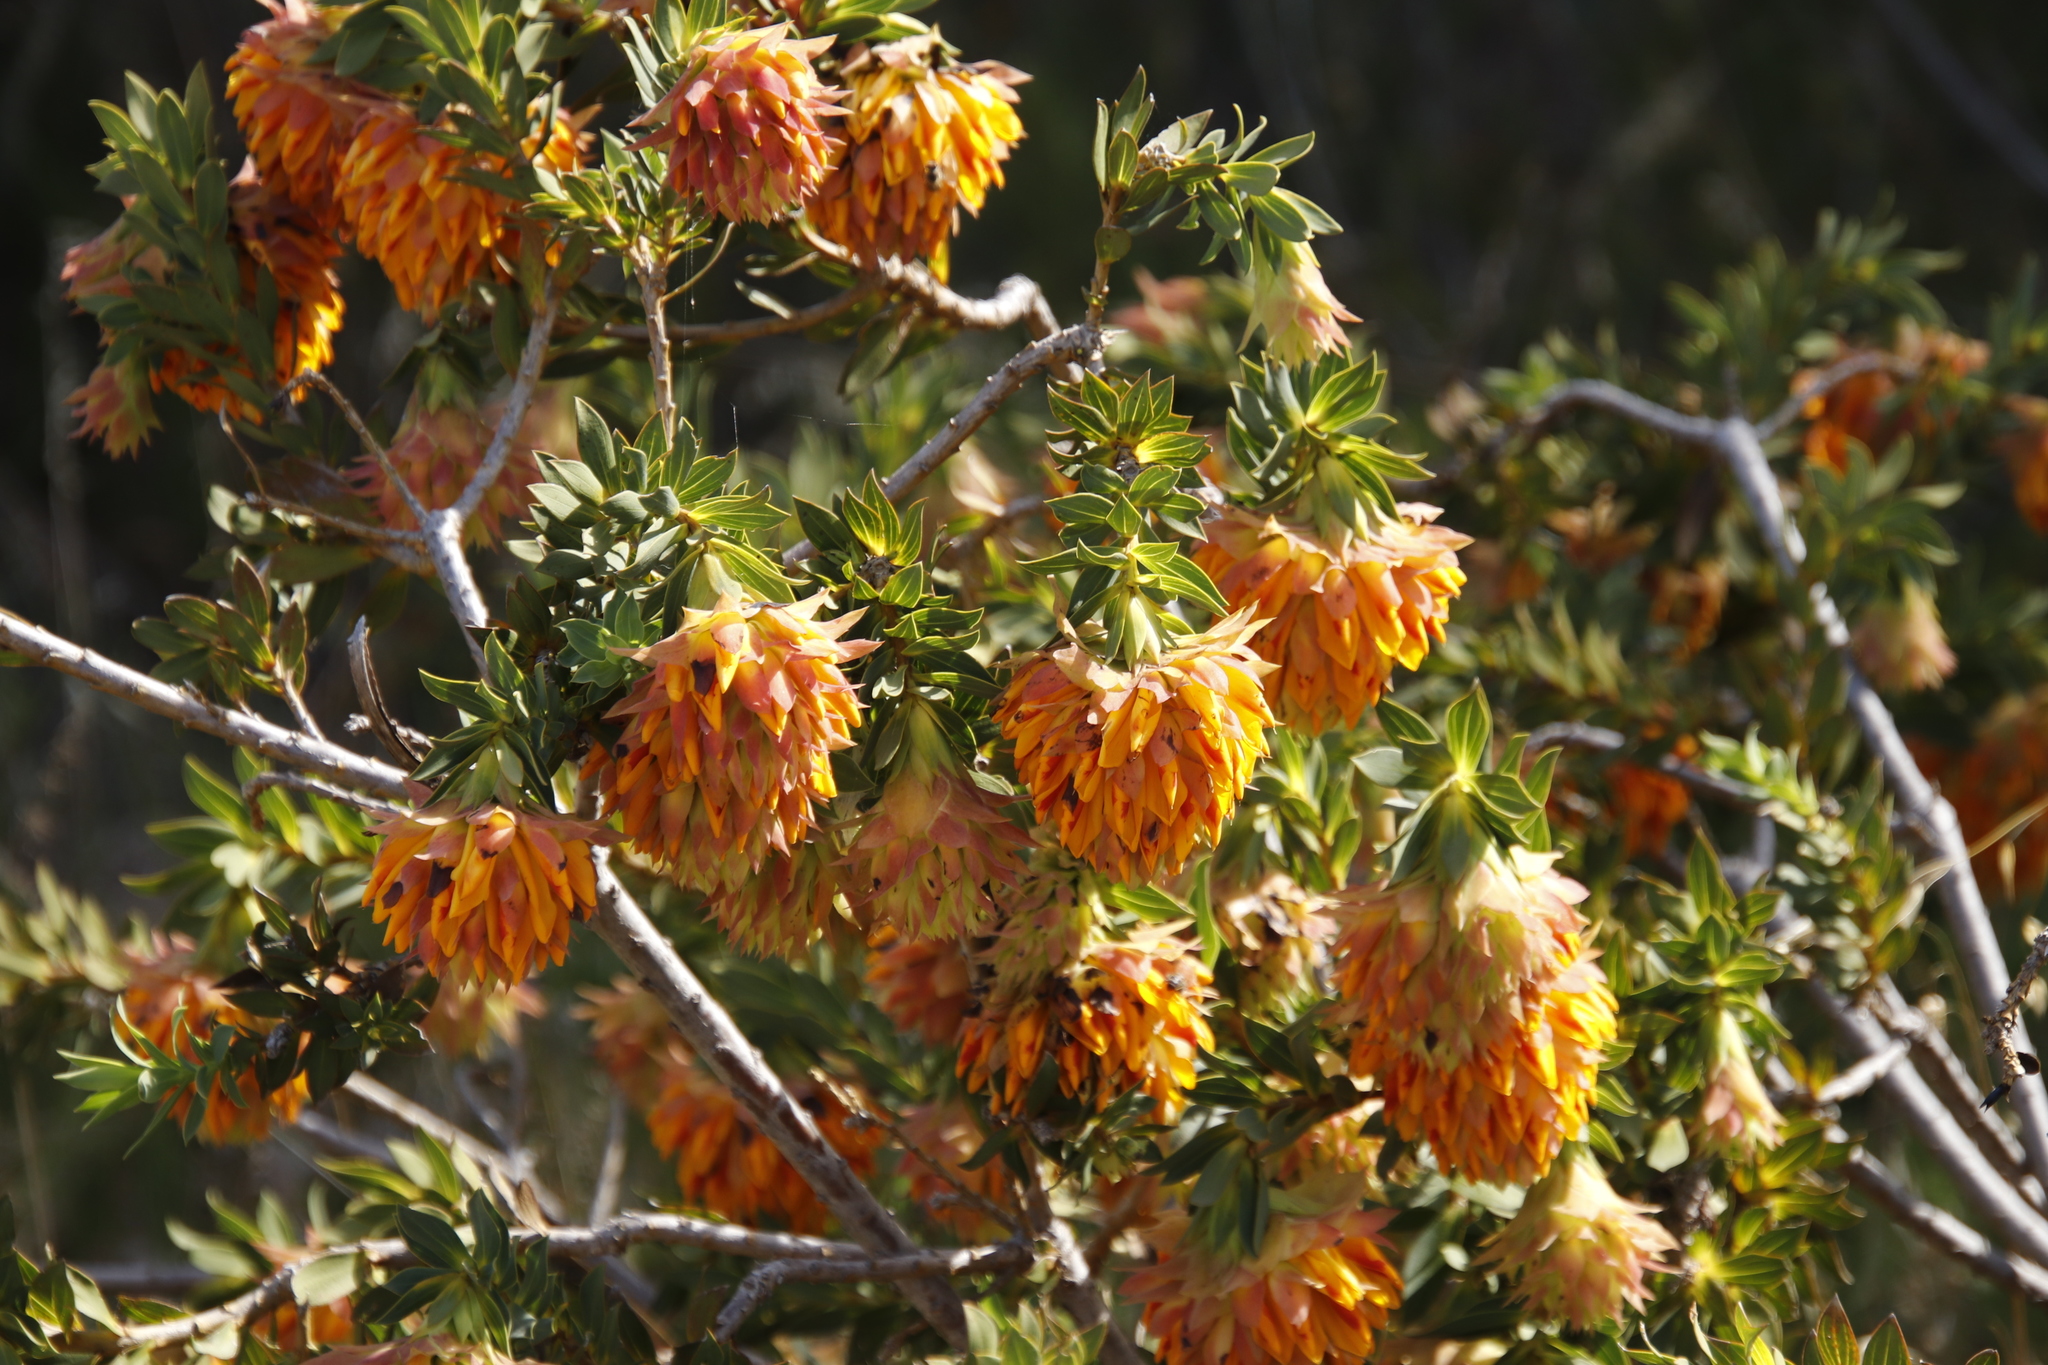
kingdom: Plantae
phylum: Tracheophyta
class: Magnoliopsida
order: Fabales
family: Fabaceae
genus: Liparia
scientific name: Liparia splendens
